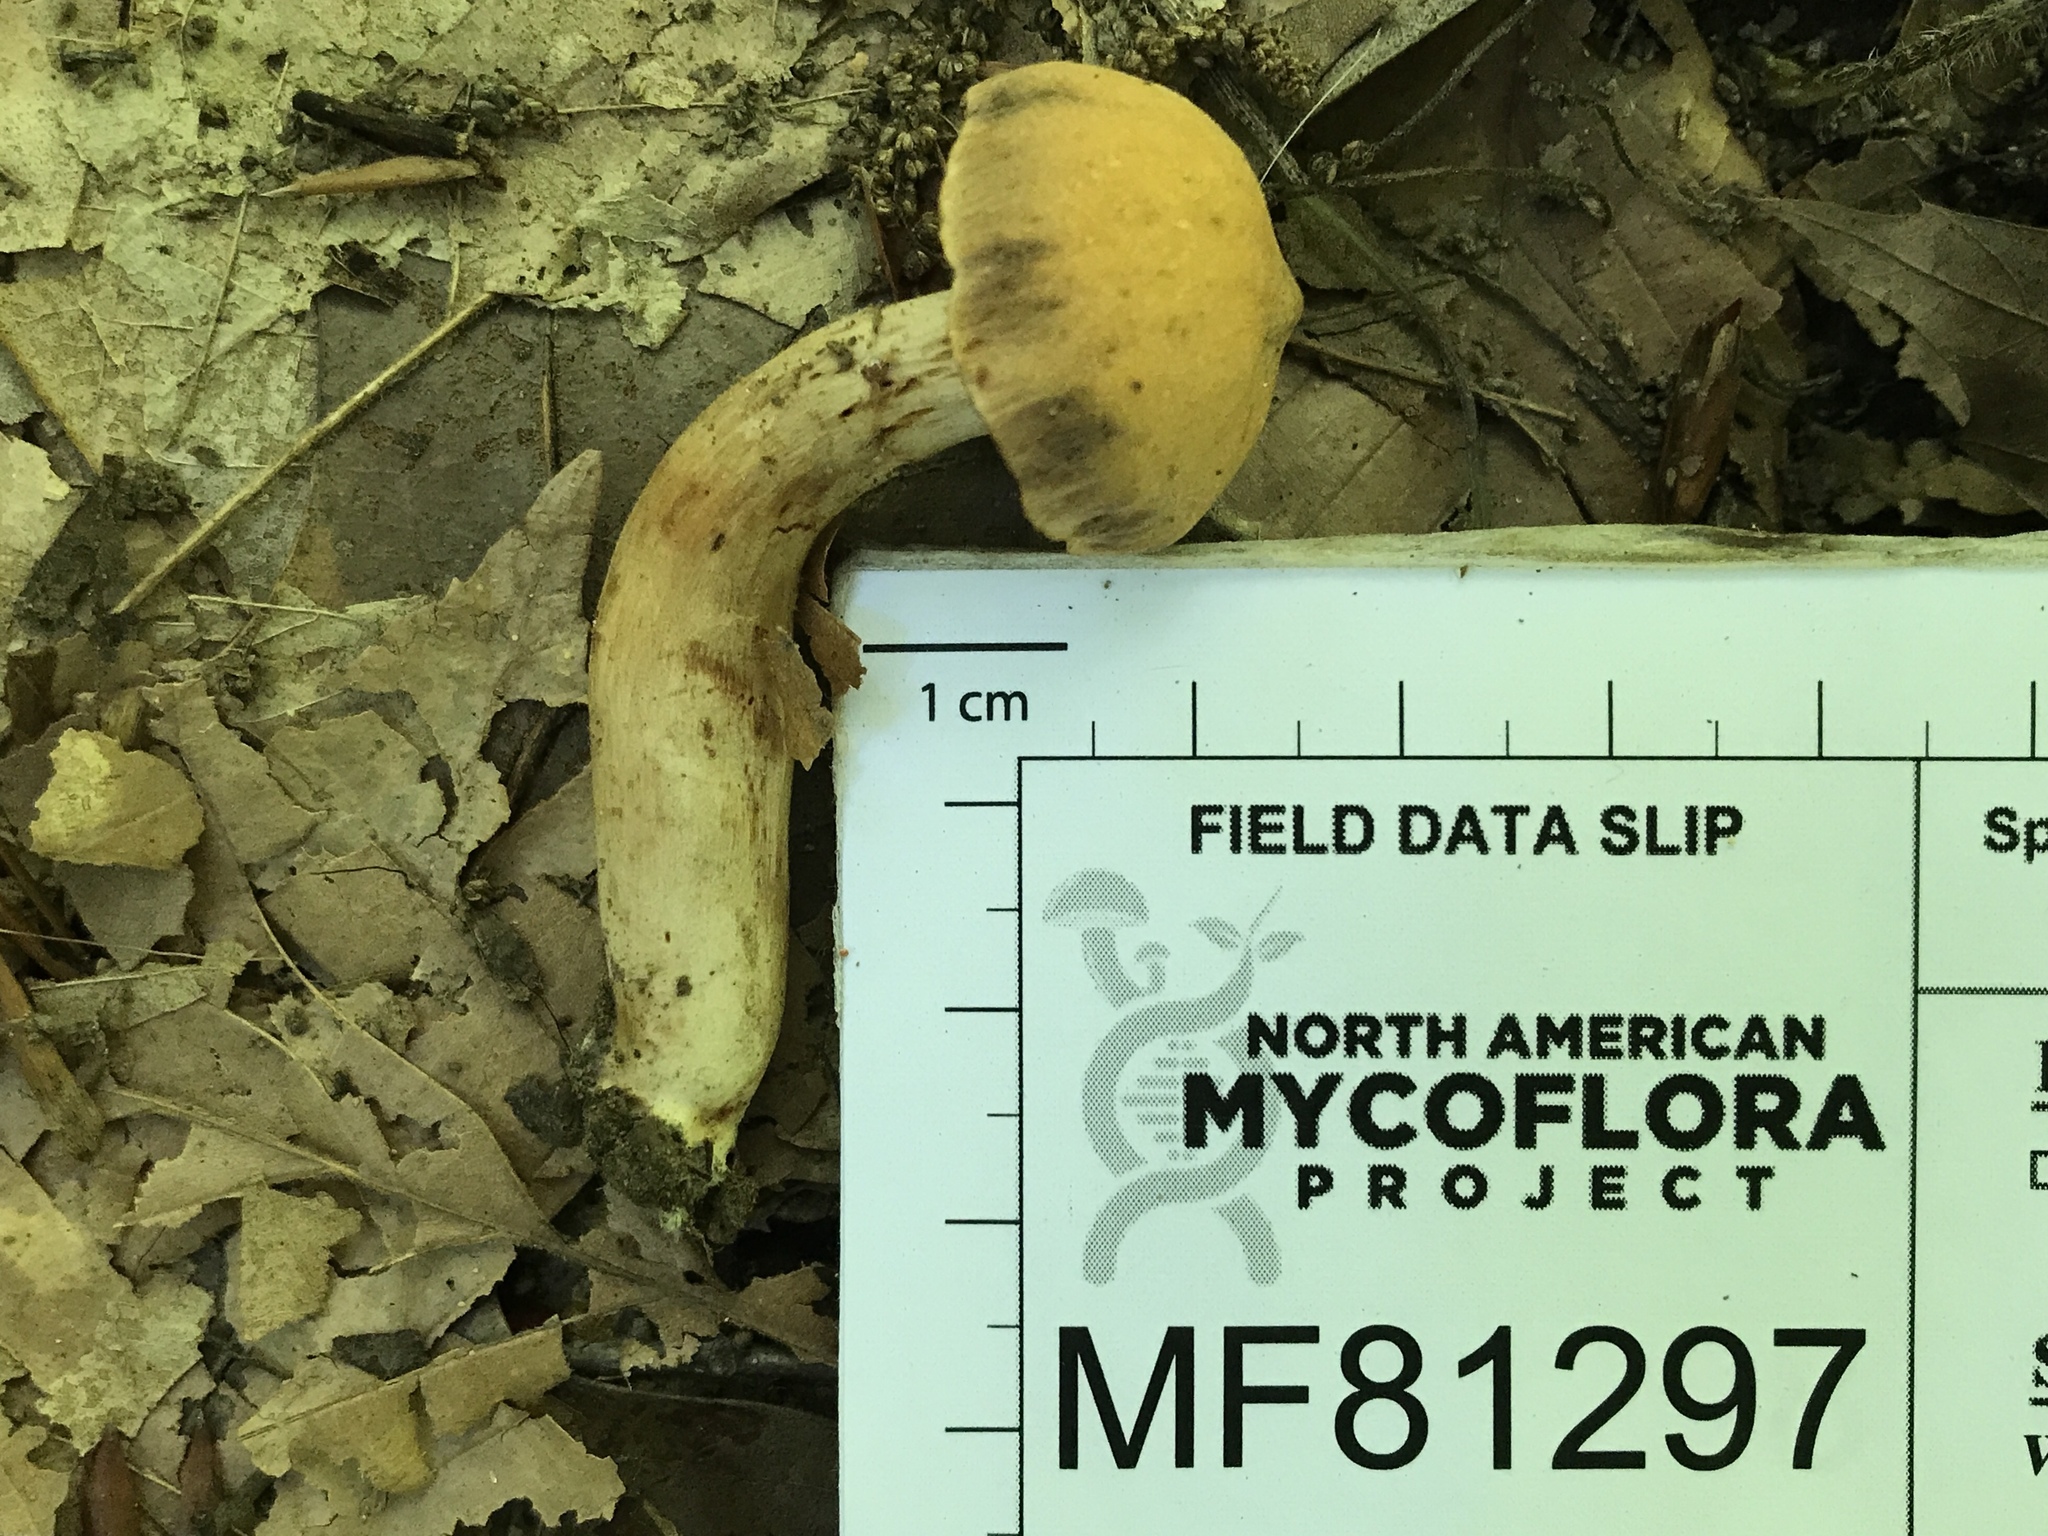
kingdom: Fungi
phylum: Basidiomycota
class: Agaricomycetes
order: Agaricales
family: Cortinariaceae
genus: Cortinarius
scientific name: Cortinarius
